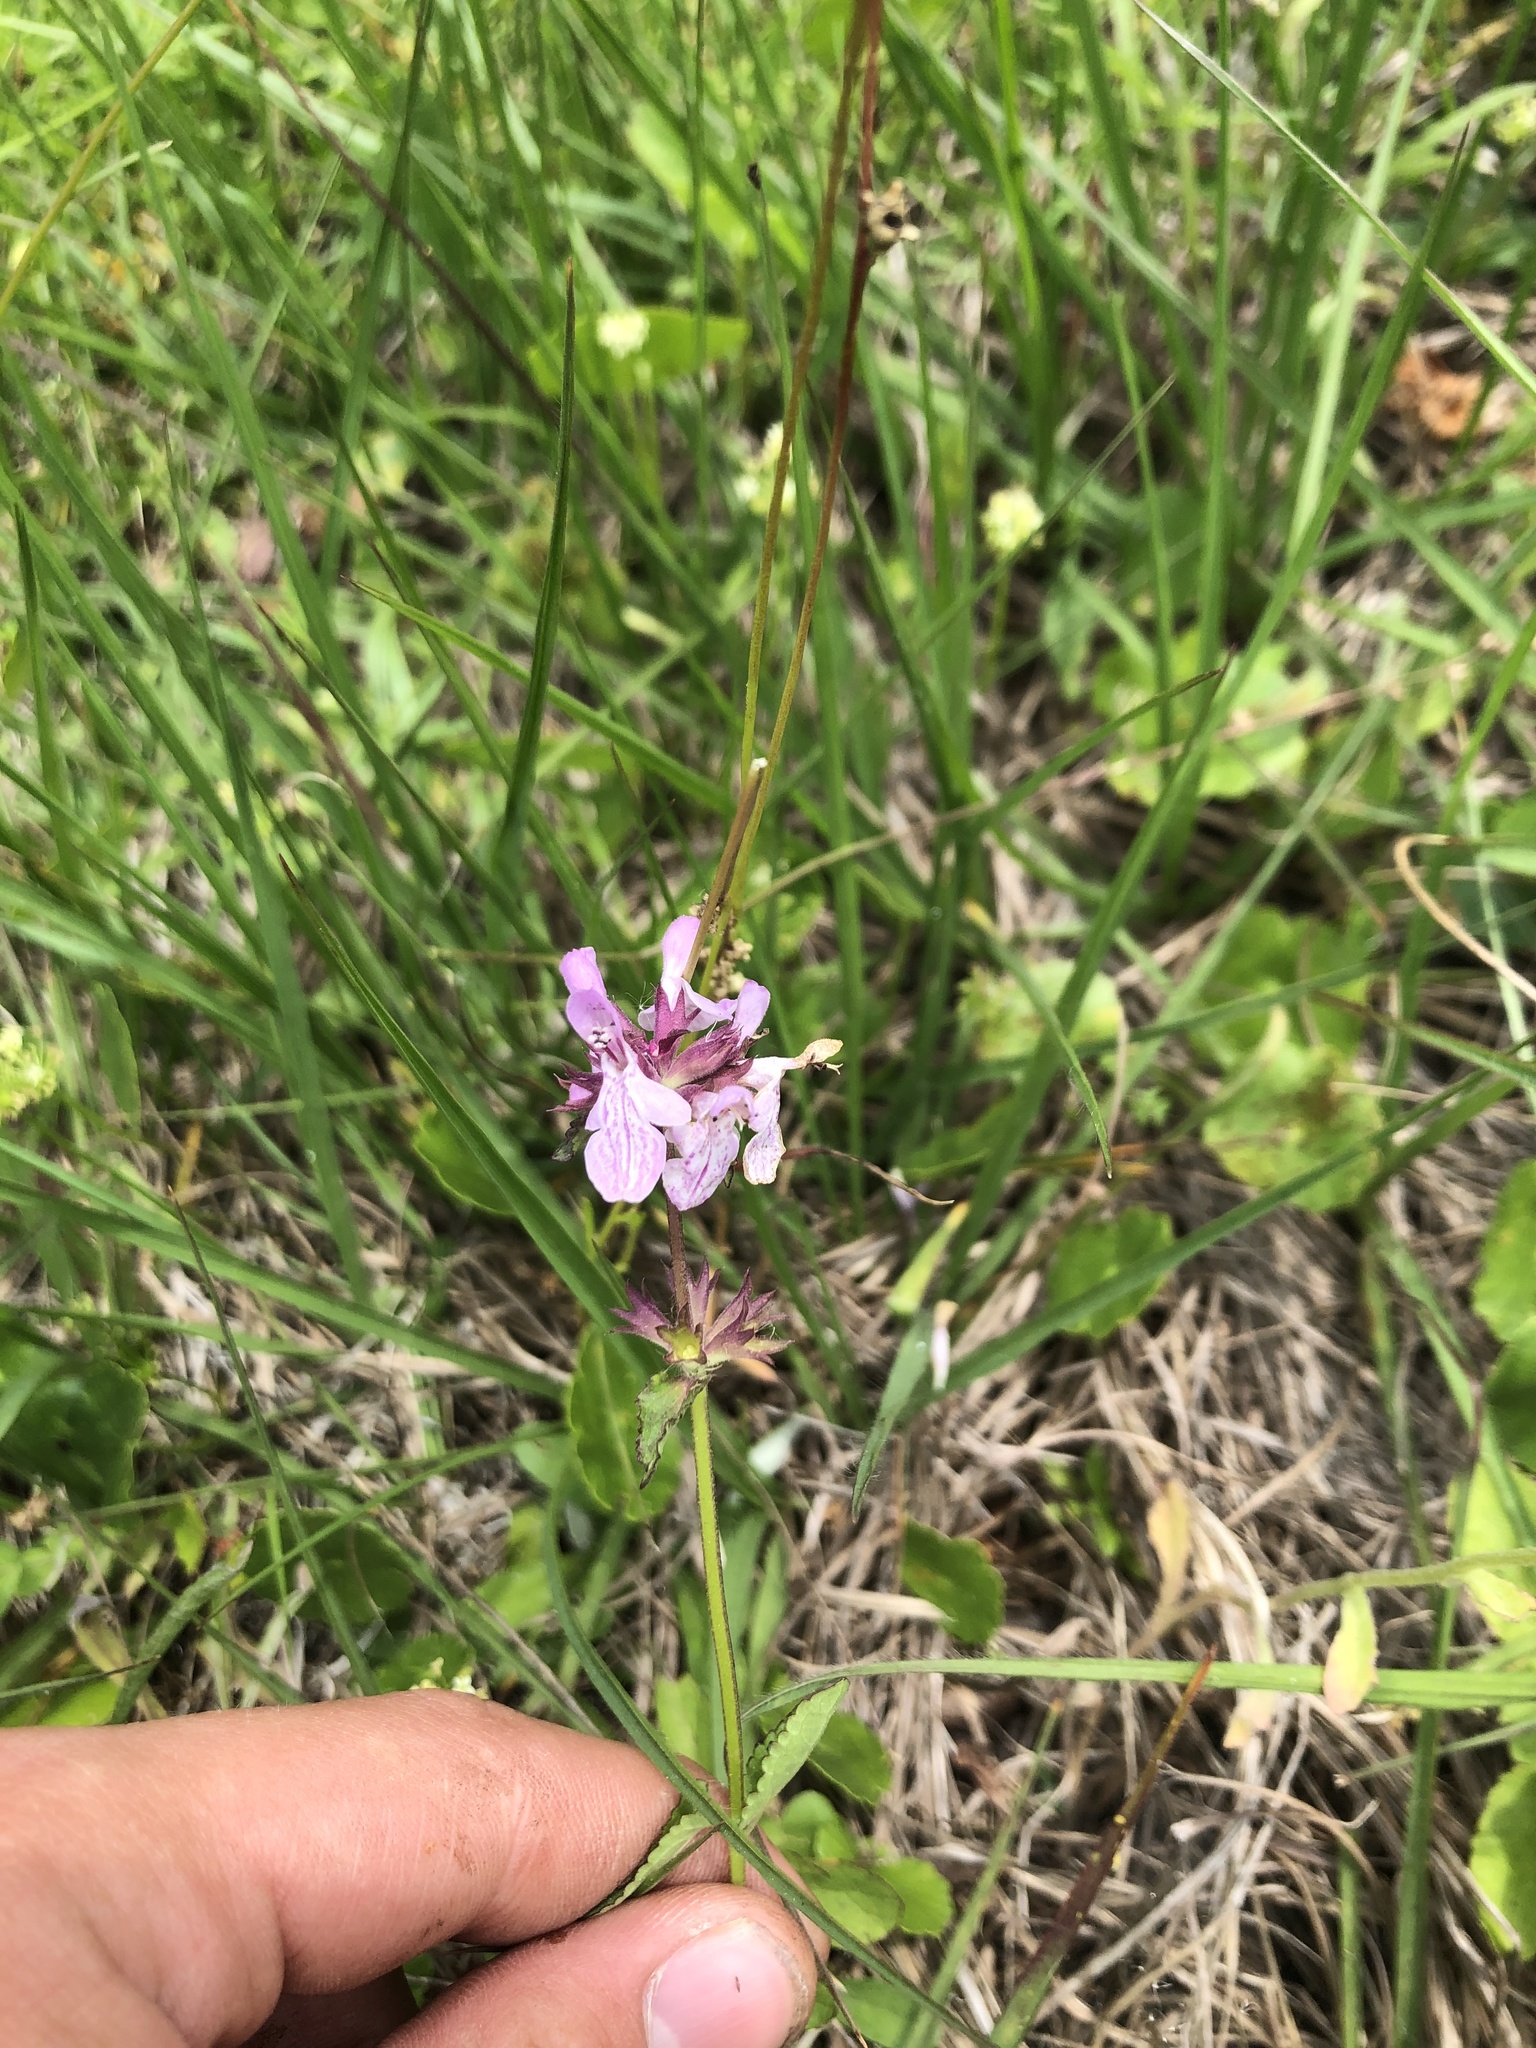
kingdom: Plantae
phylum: Tracheophyta
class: Magnoliopsida
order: Lamiales
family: Lamiaceae
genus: Stachys
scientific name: Stachys floridana
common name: Florida betony
